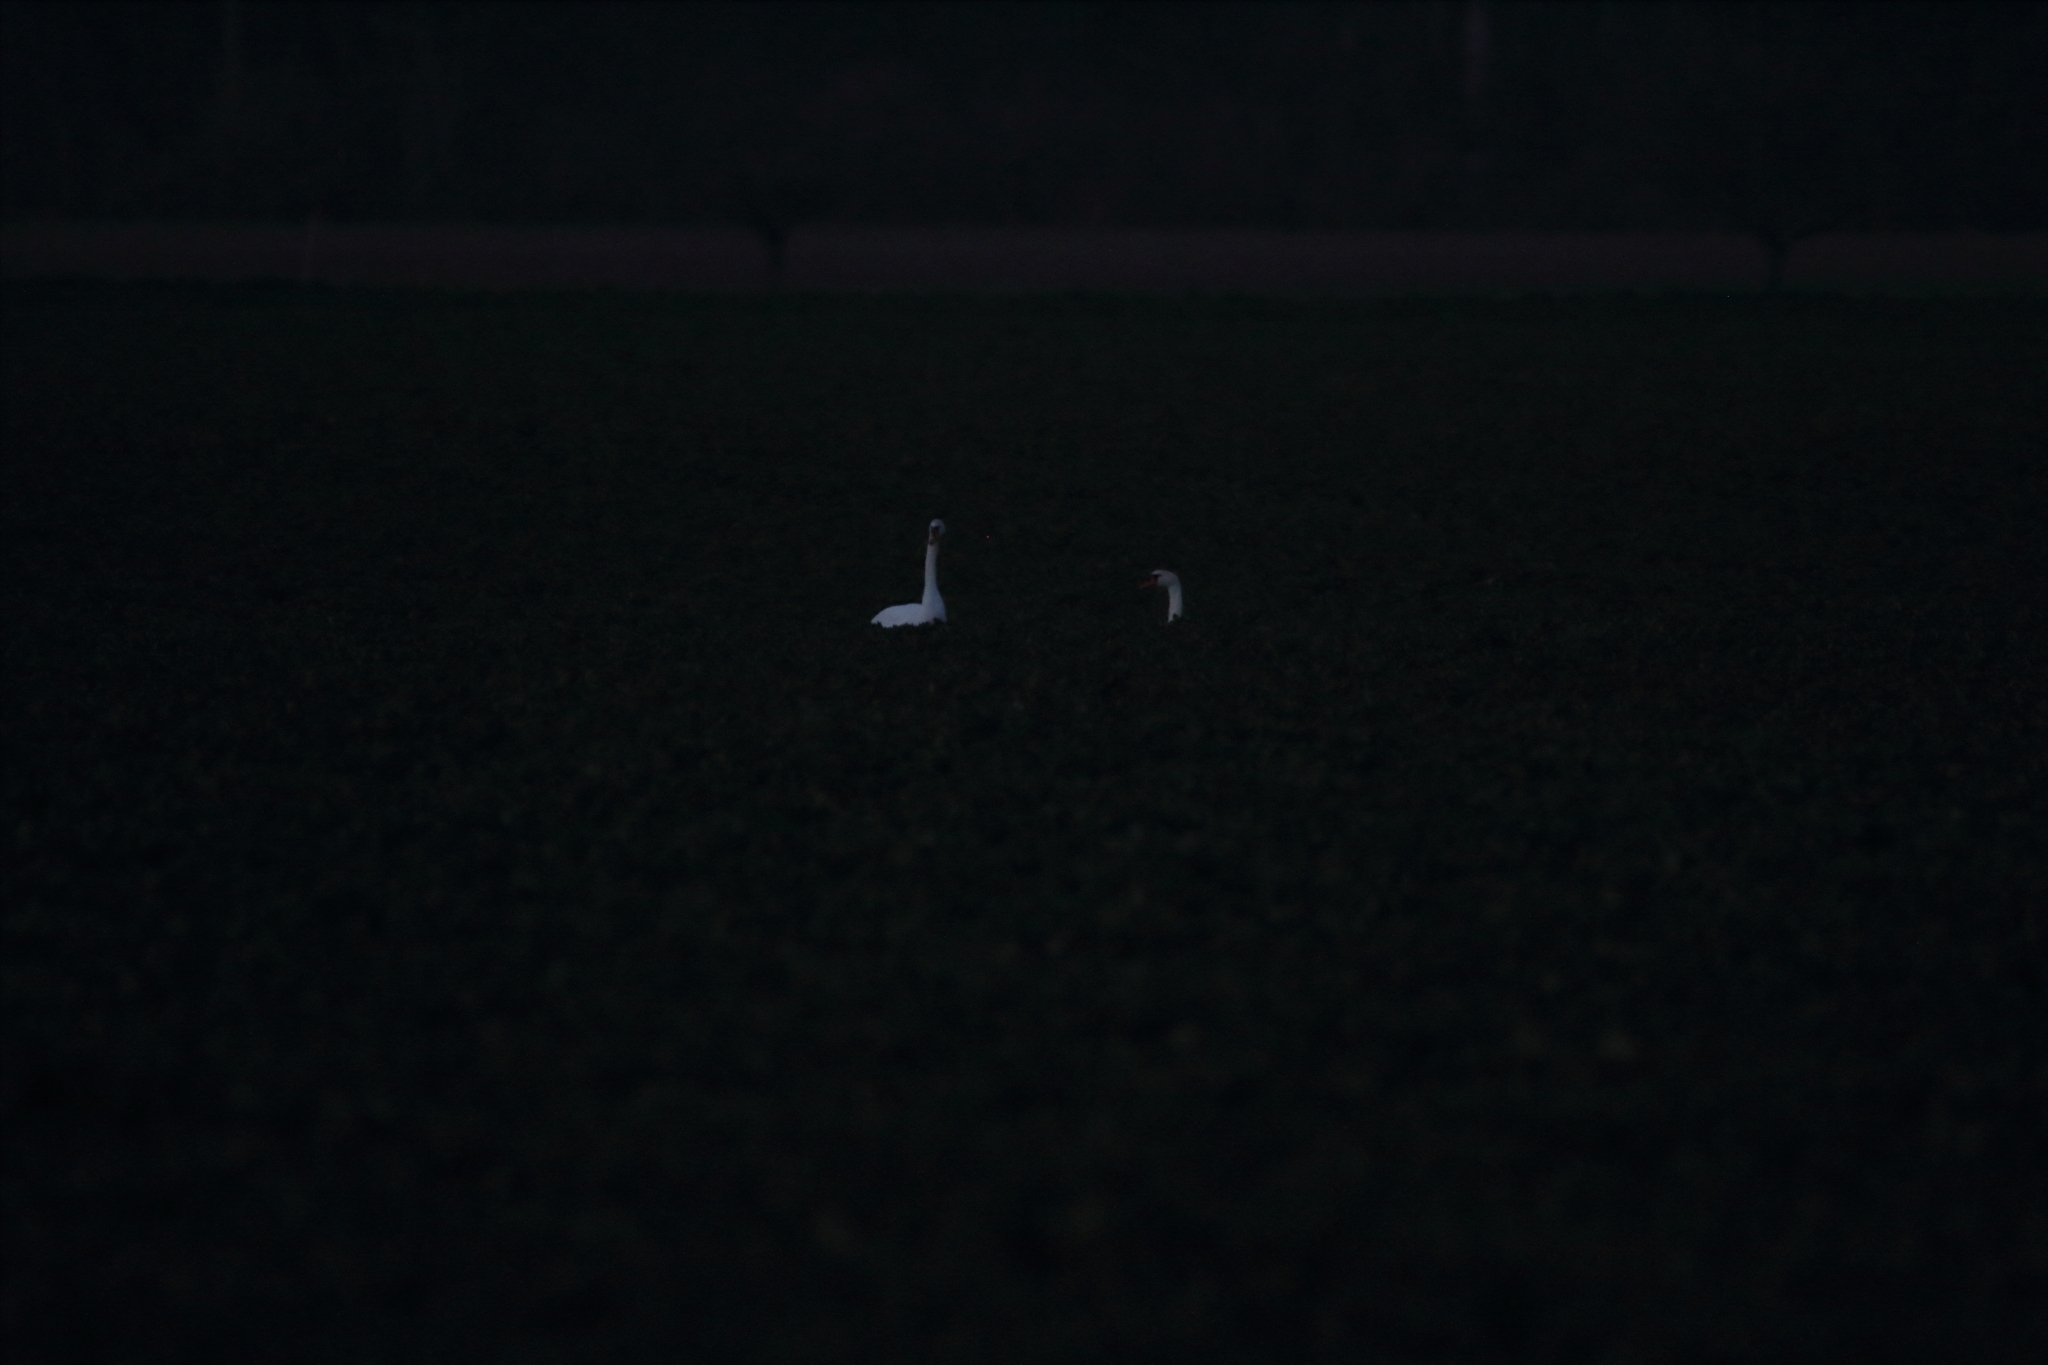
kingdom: Animalia
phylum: Chordata
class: Aves
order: Anseriformes
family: Anatidae
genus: Cygnus
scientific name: Cygnus olor
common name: Mute swan
